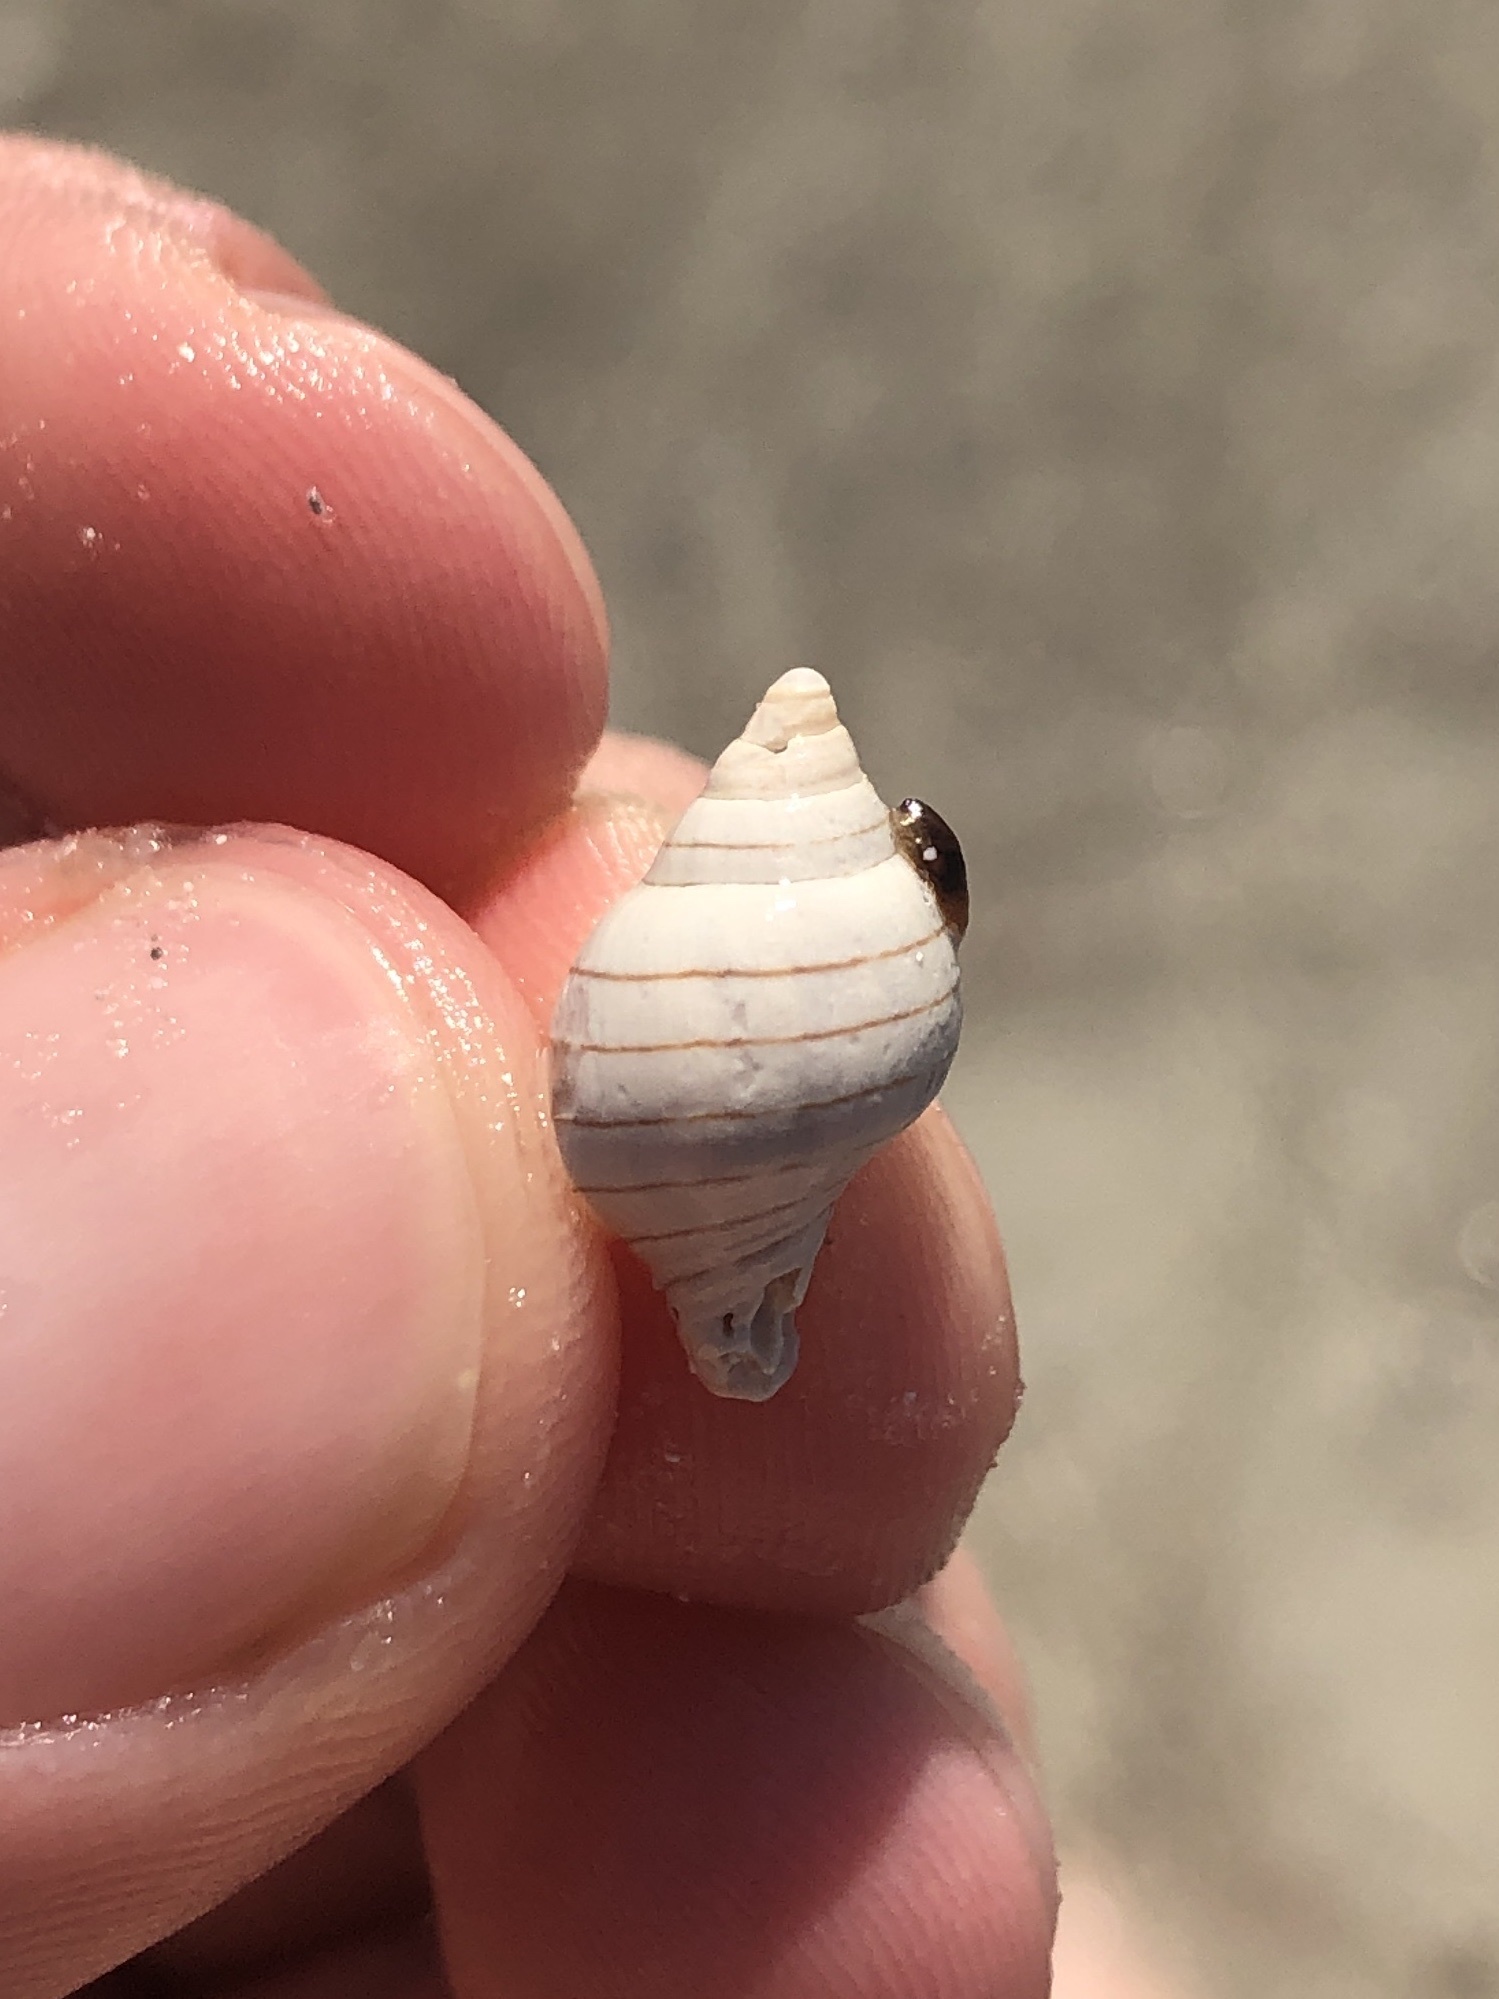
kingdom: Animalia
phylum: Mollusca
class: Gastropoda
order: Neogastropoda
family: Fasciolariidae
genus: Cinctura
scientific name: Cinctura hunteria
